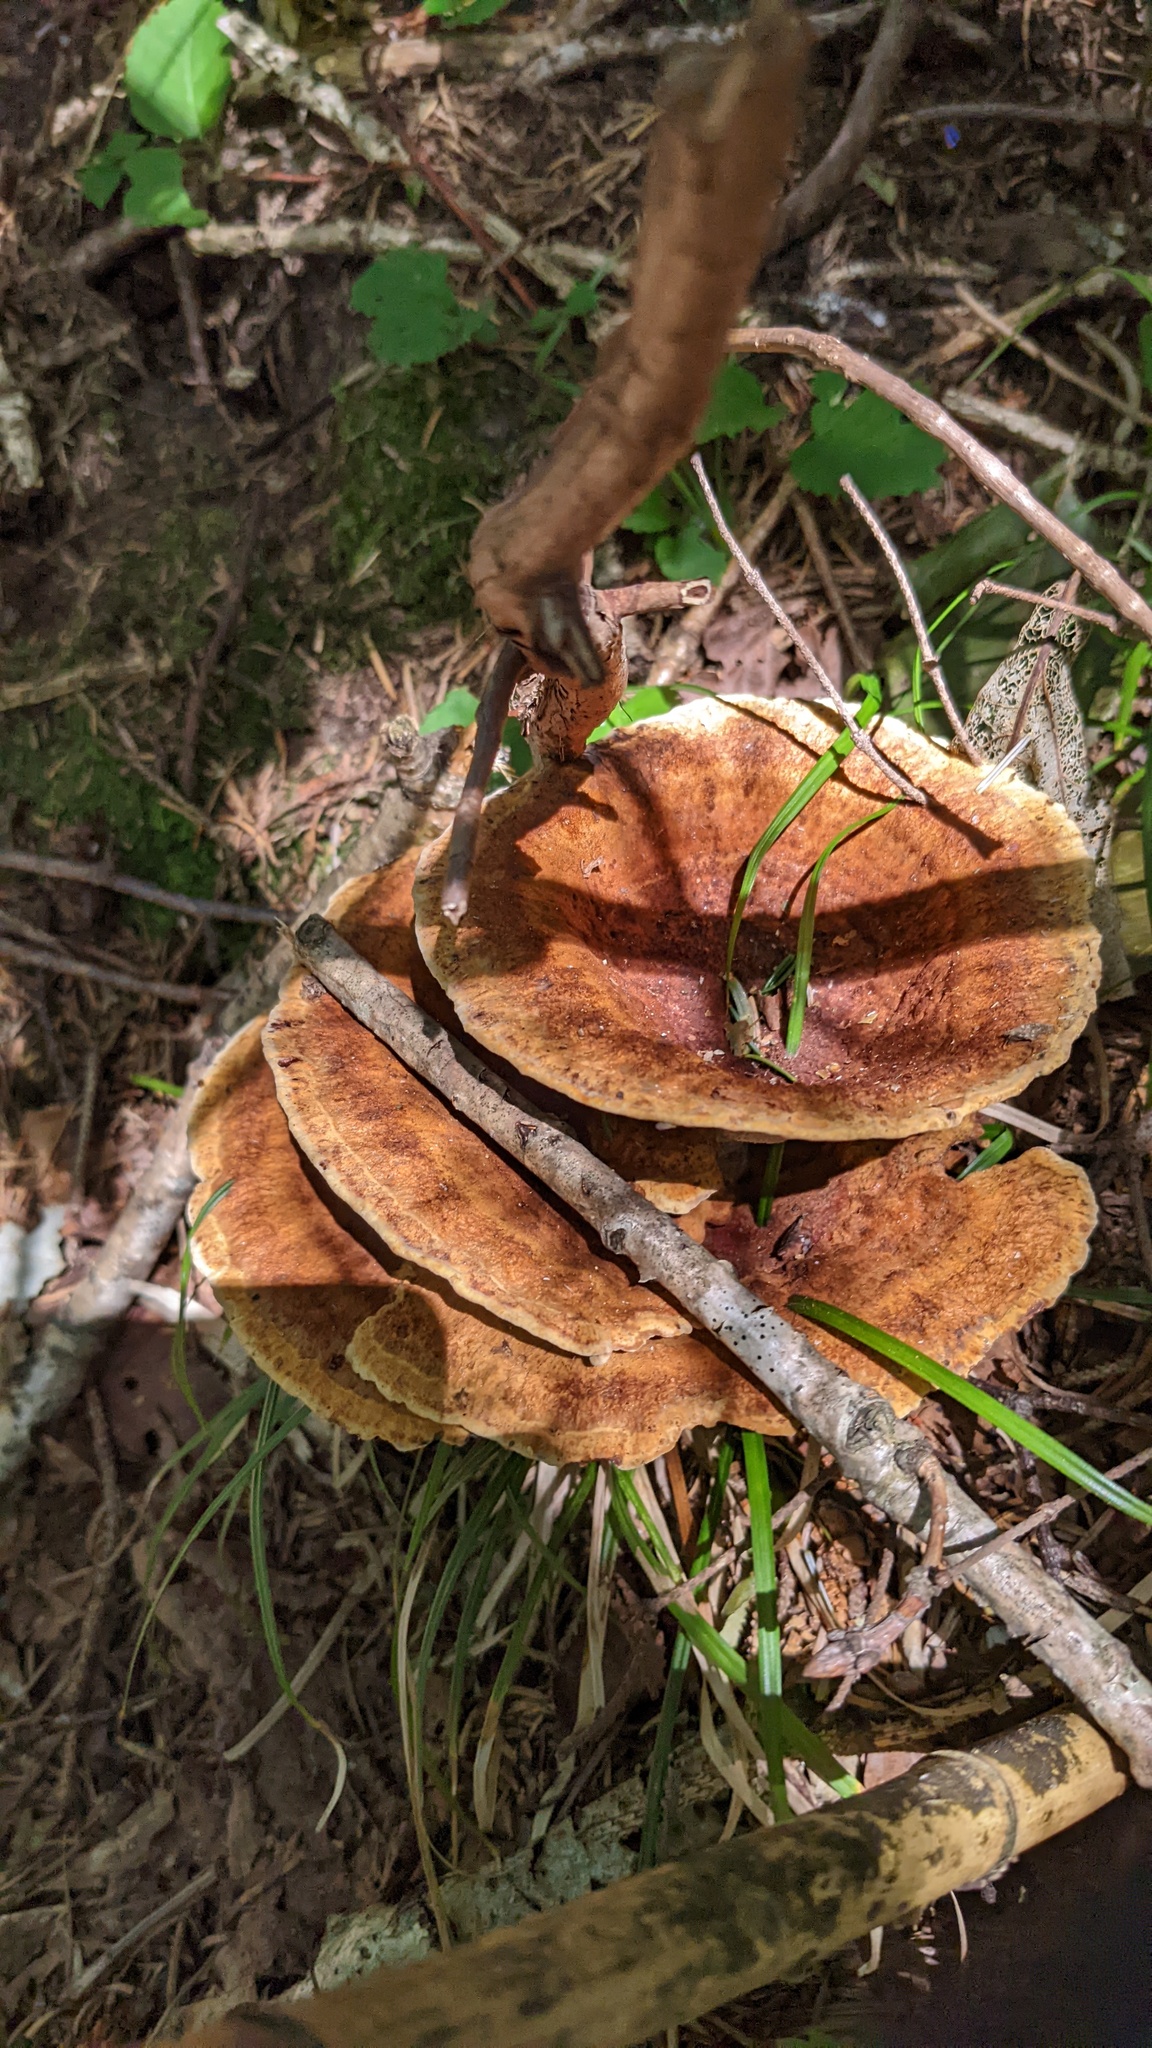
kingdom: Fungi
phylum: Basidiomycota
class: Agaricomycetes
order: Polyporales
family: Laetiporaceae
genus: Phaeolus
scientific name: Phaeolus schweinitzii
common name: Dyer's mazegill
